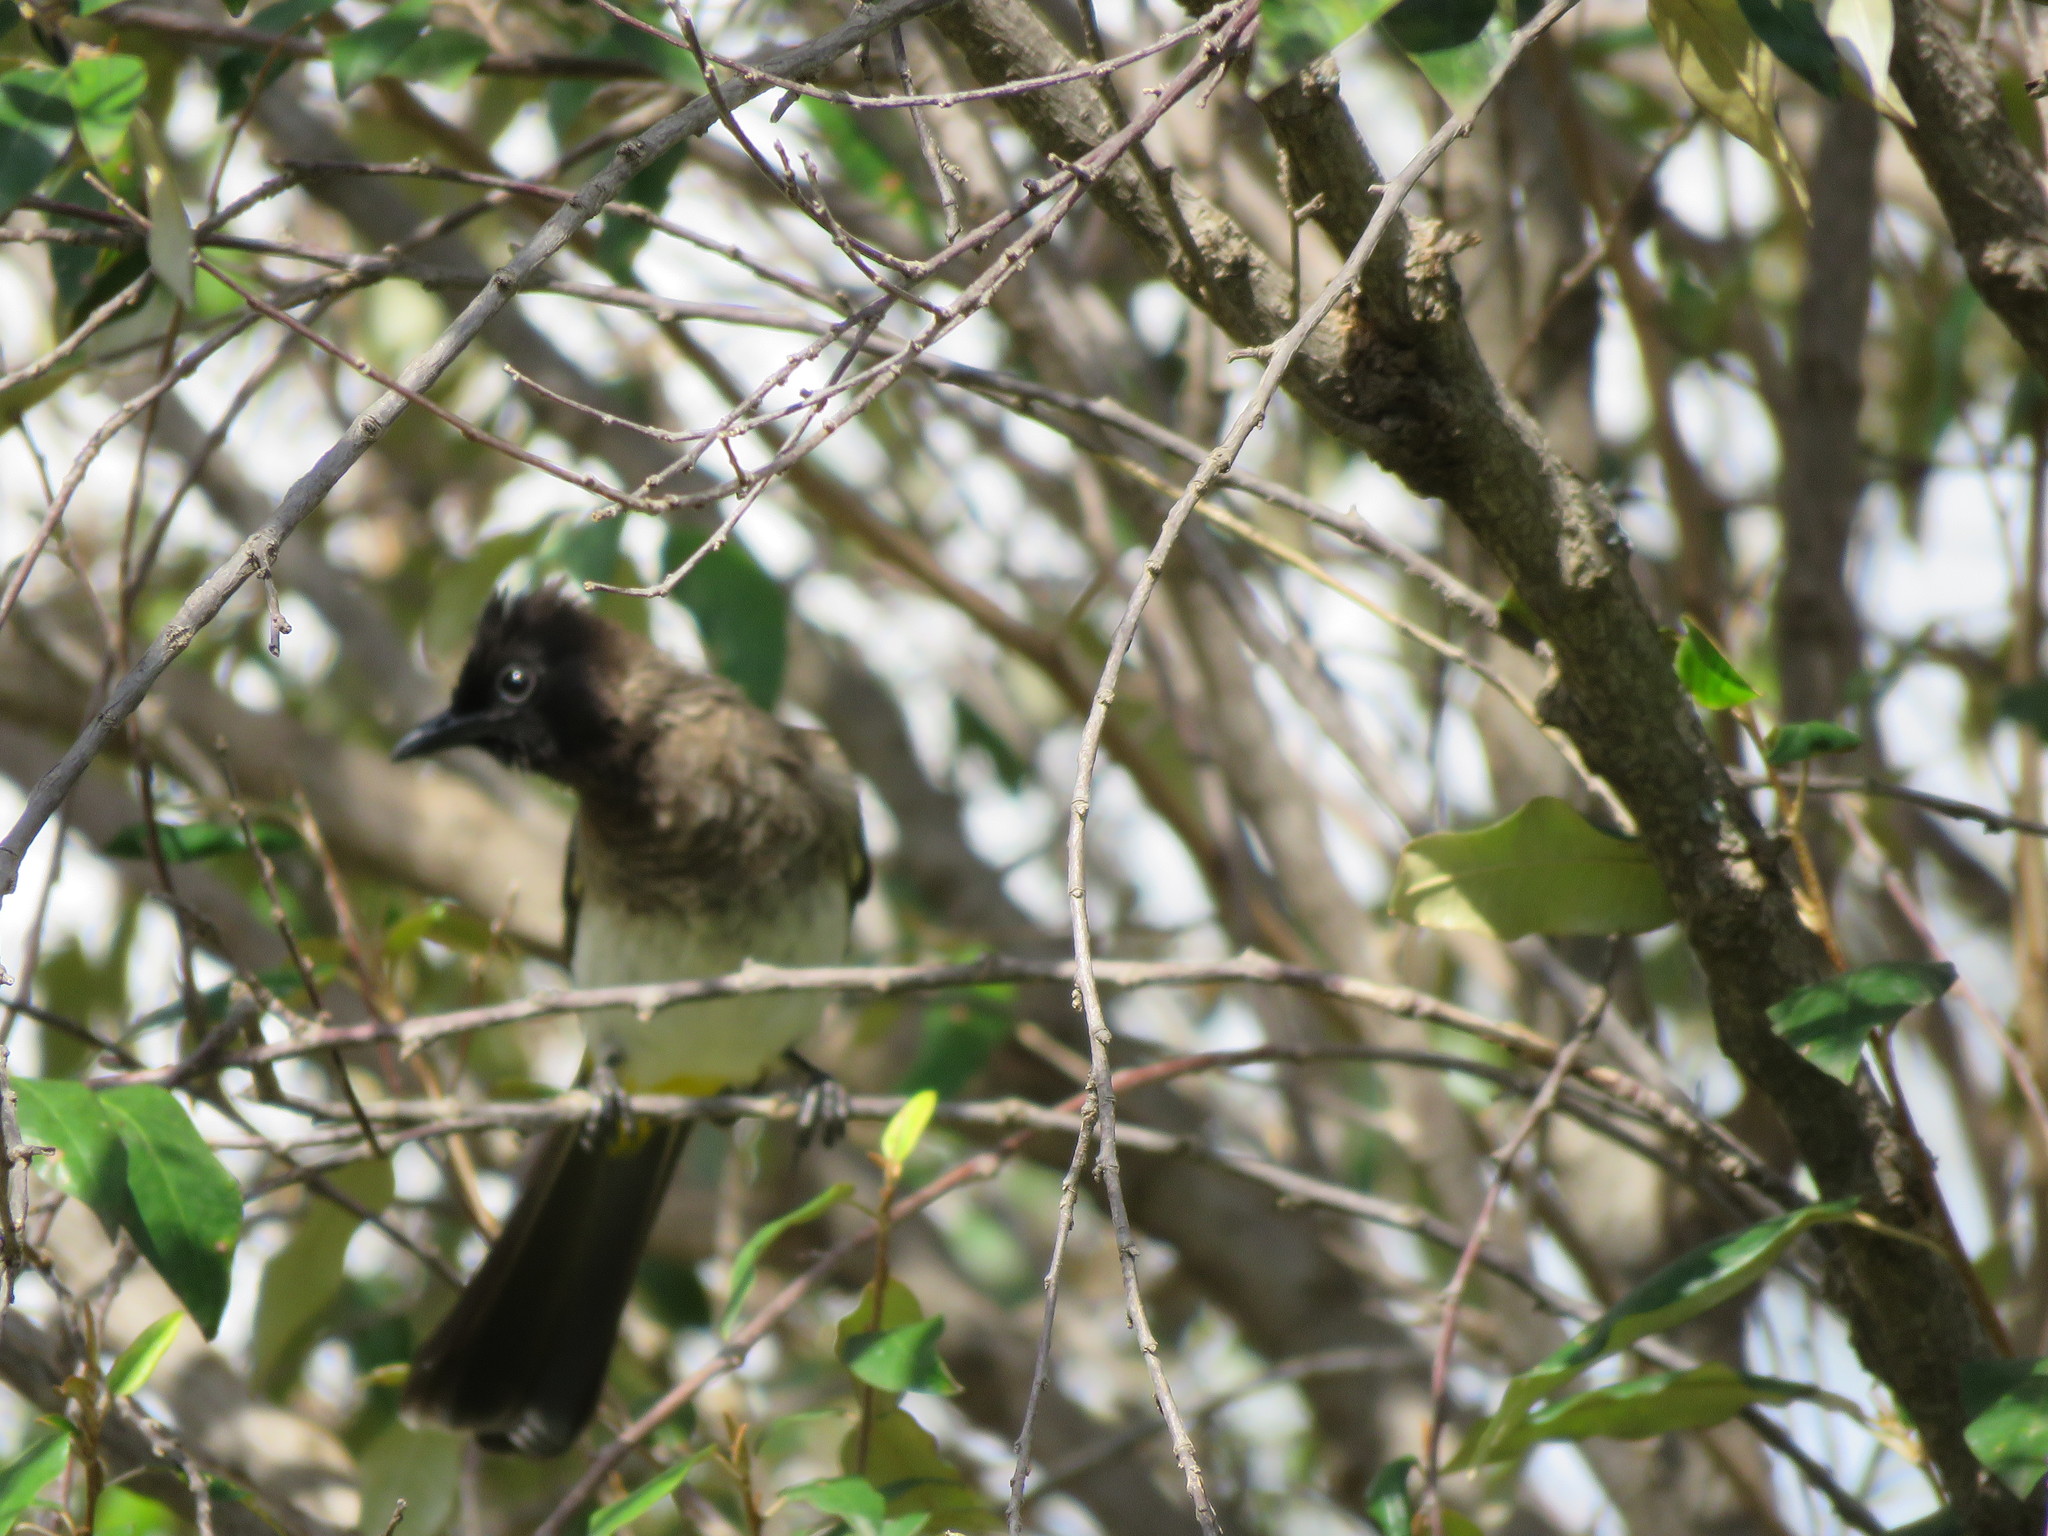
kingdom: Animalia
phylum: Chordata
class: Aves
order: Passeriformes
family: Pycnonotidae
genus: Pycnonotus
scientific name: Pycnonotus barbatus
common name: Common bulbul
